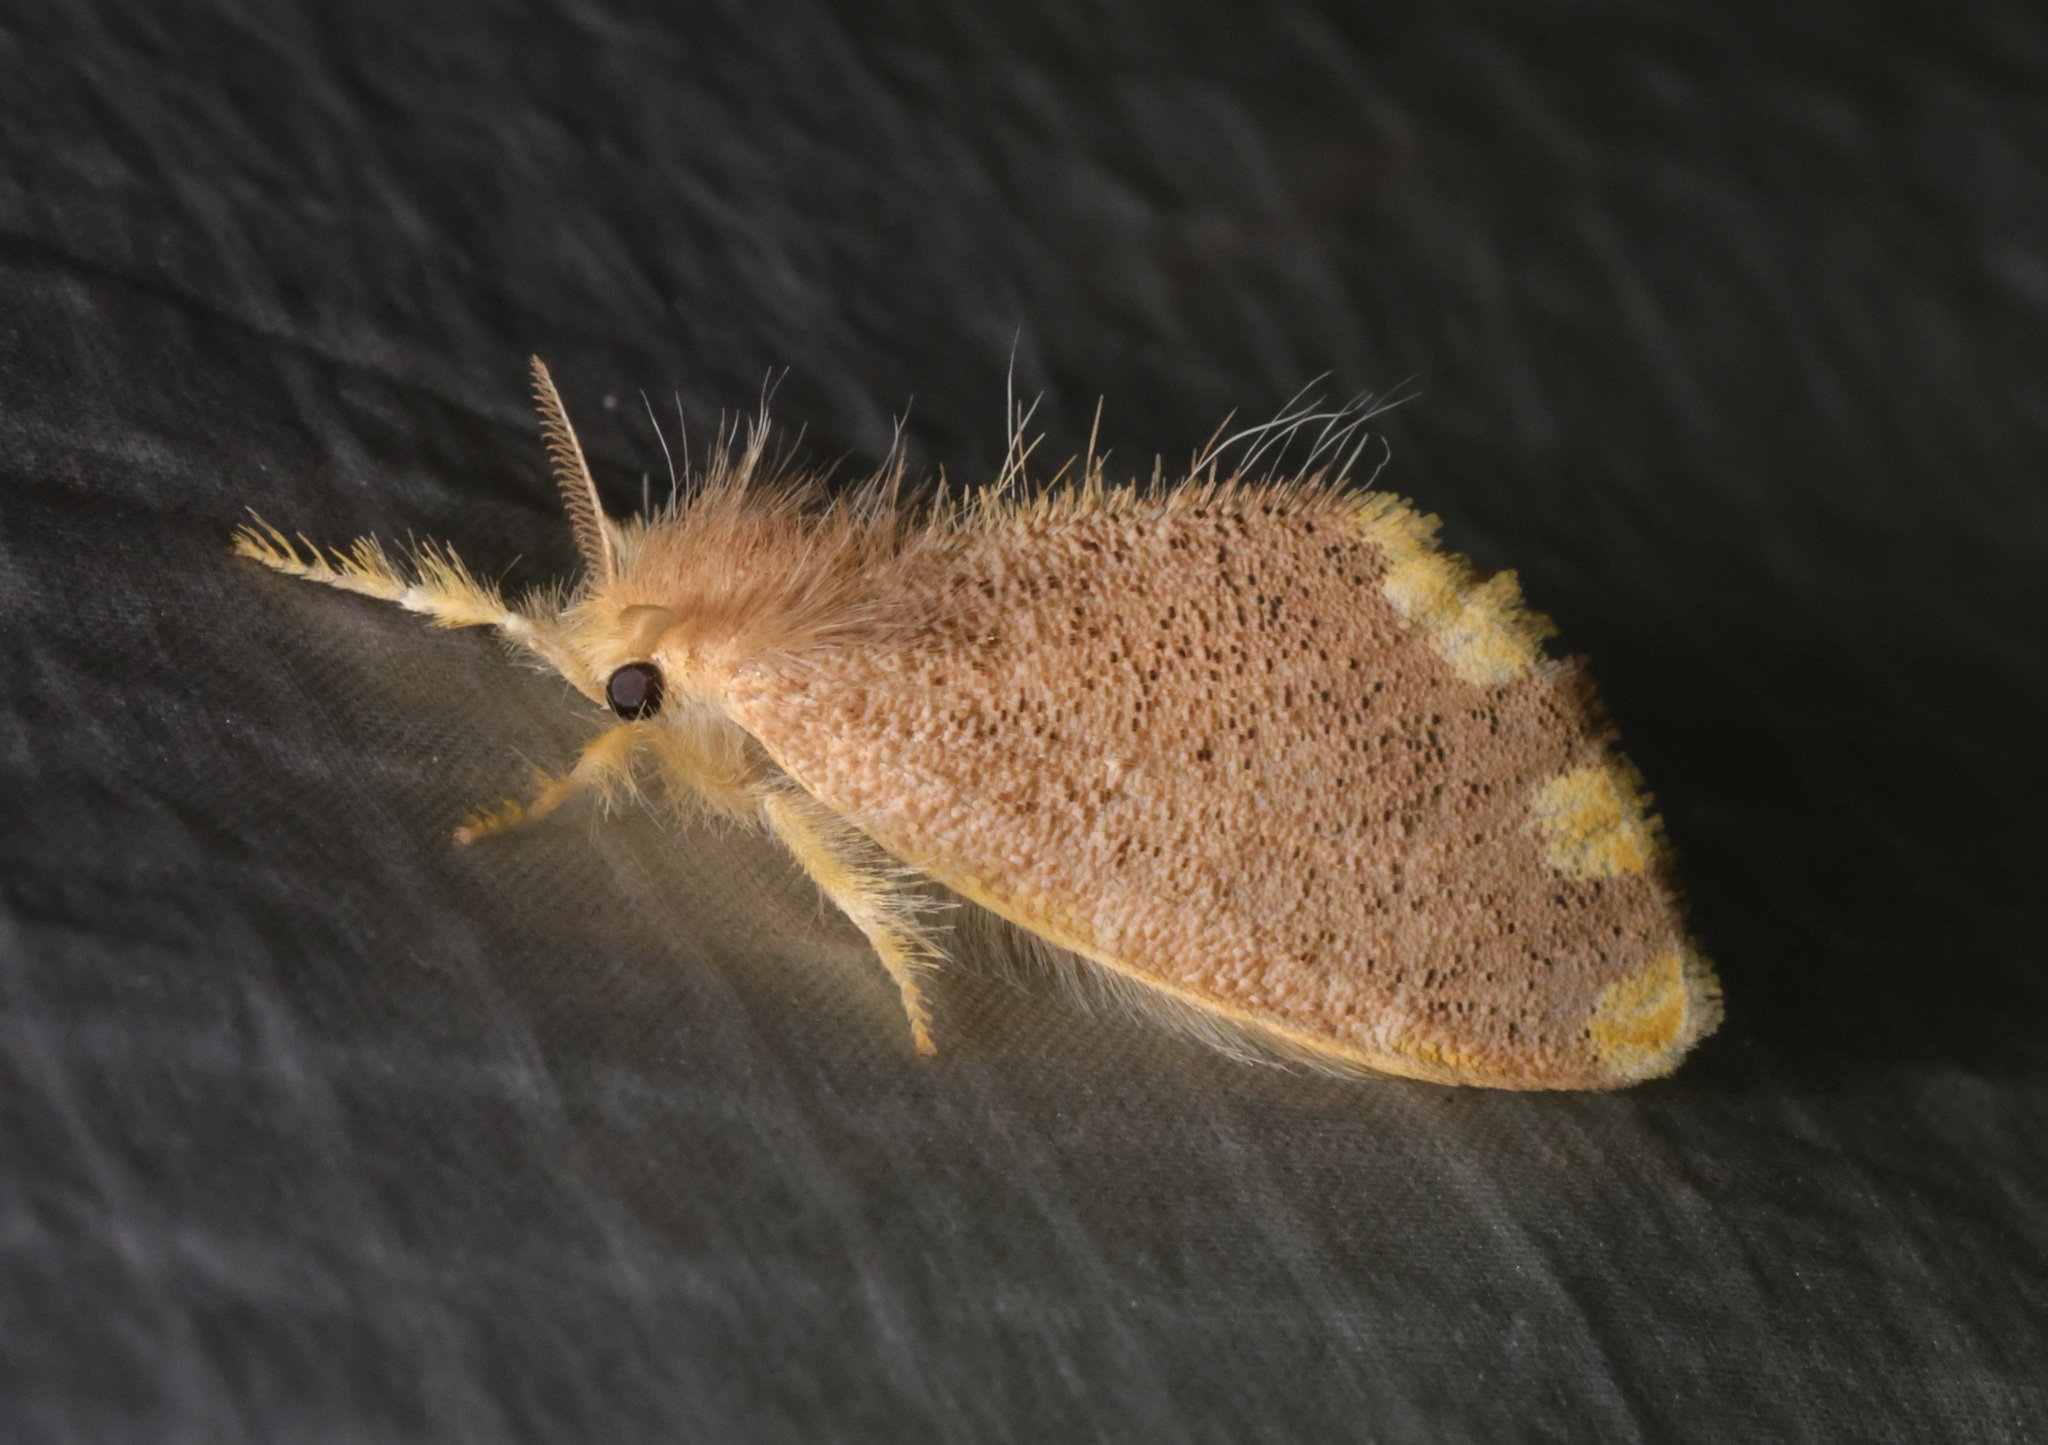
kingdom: Animalia
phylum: Arthropoda
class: Insecta
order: Lepidoptera
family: Erebidae
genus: Orvasca
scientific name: Orvasca subnotata
